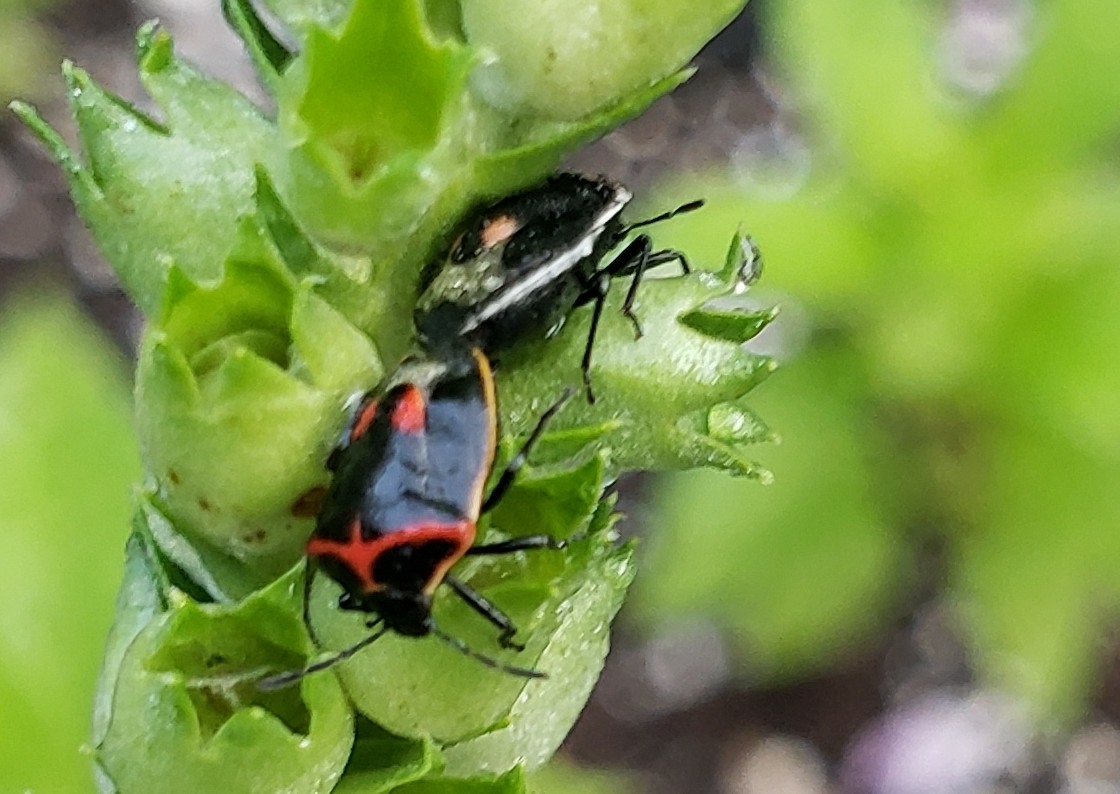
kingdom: Animalia
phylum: Arthropoda
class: Insecta
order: Hemiptera
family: Pentatomidae
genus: Cosmopepla
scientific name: Cosmopepla lintneriana
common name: Twice-stabbed stink bug
